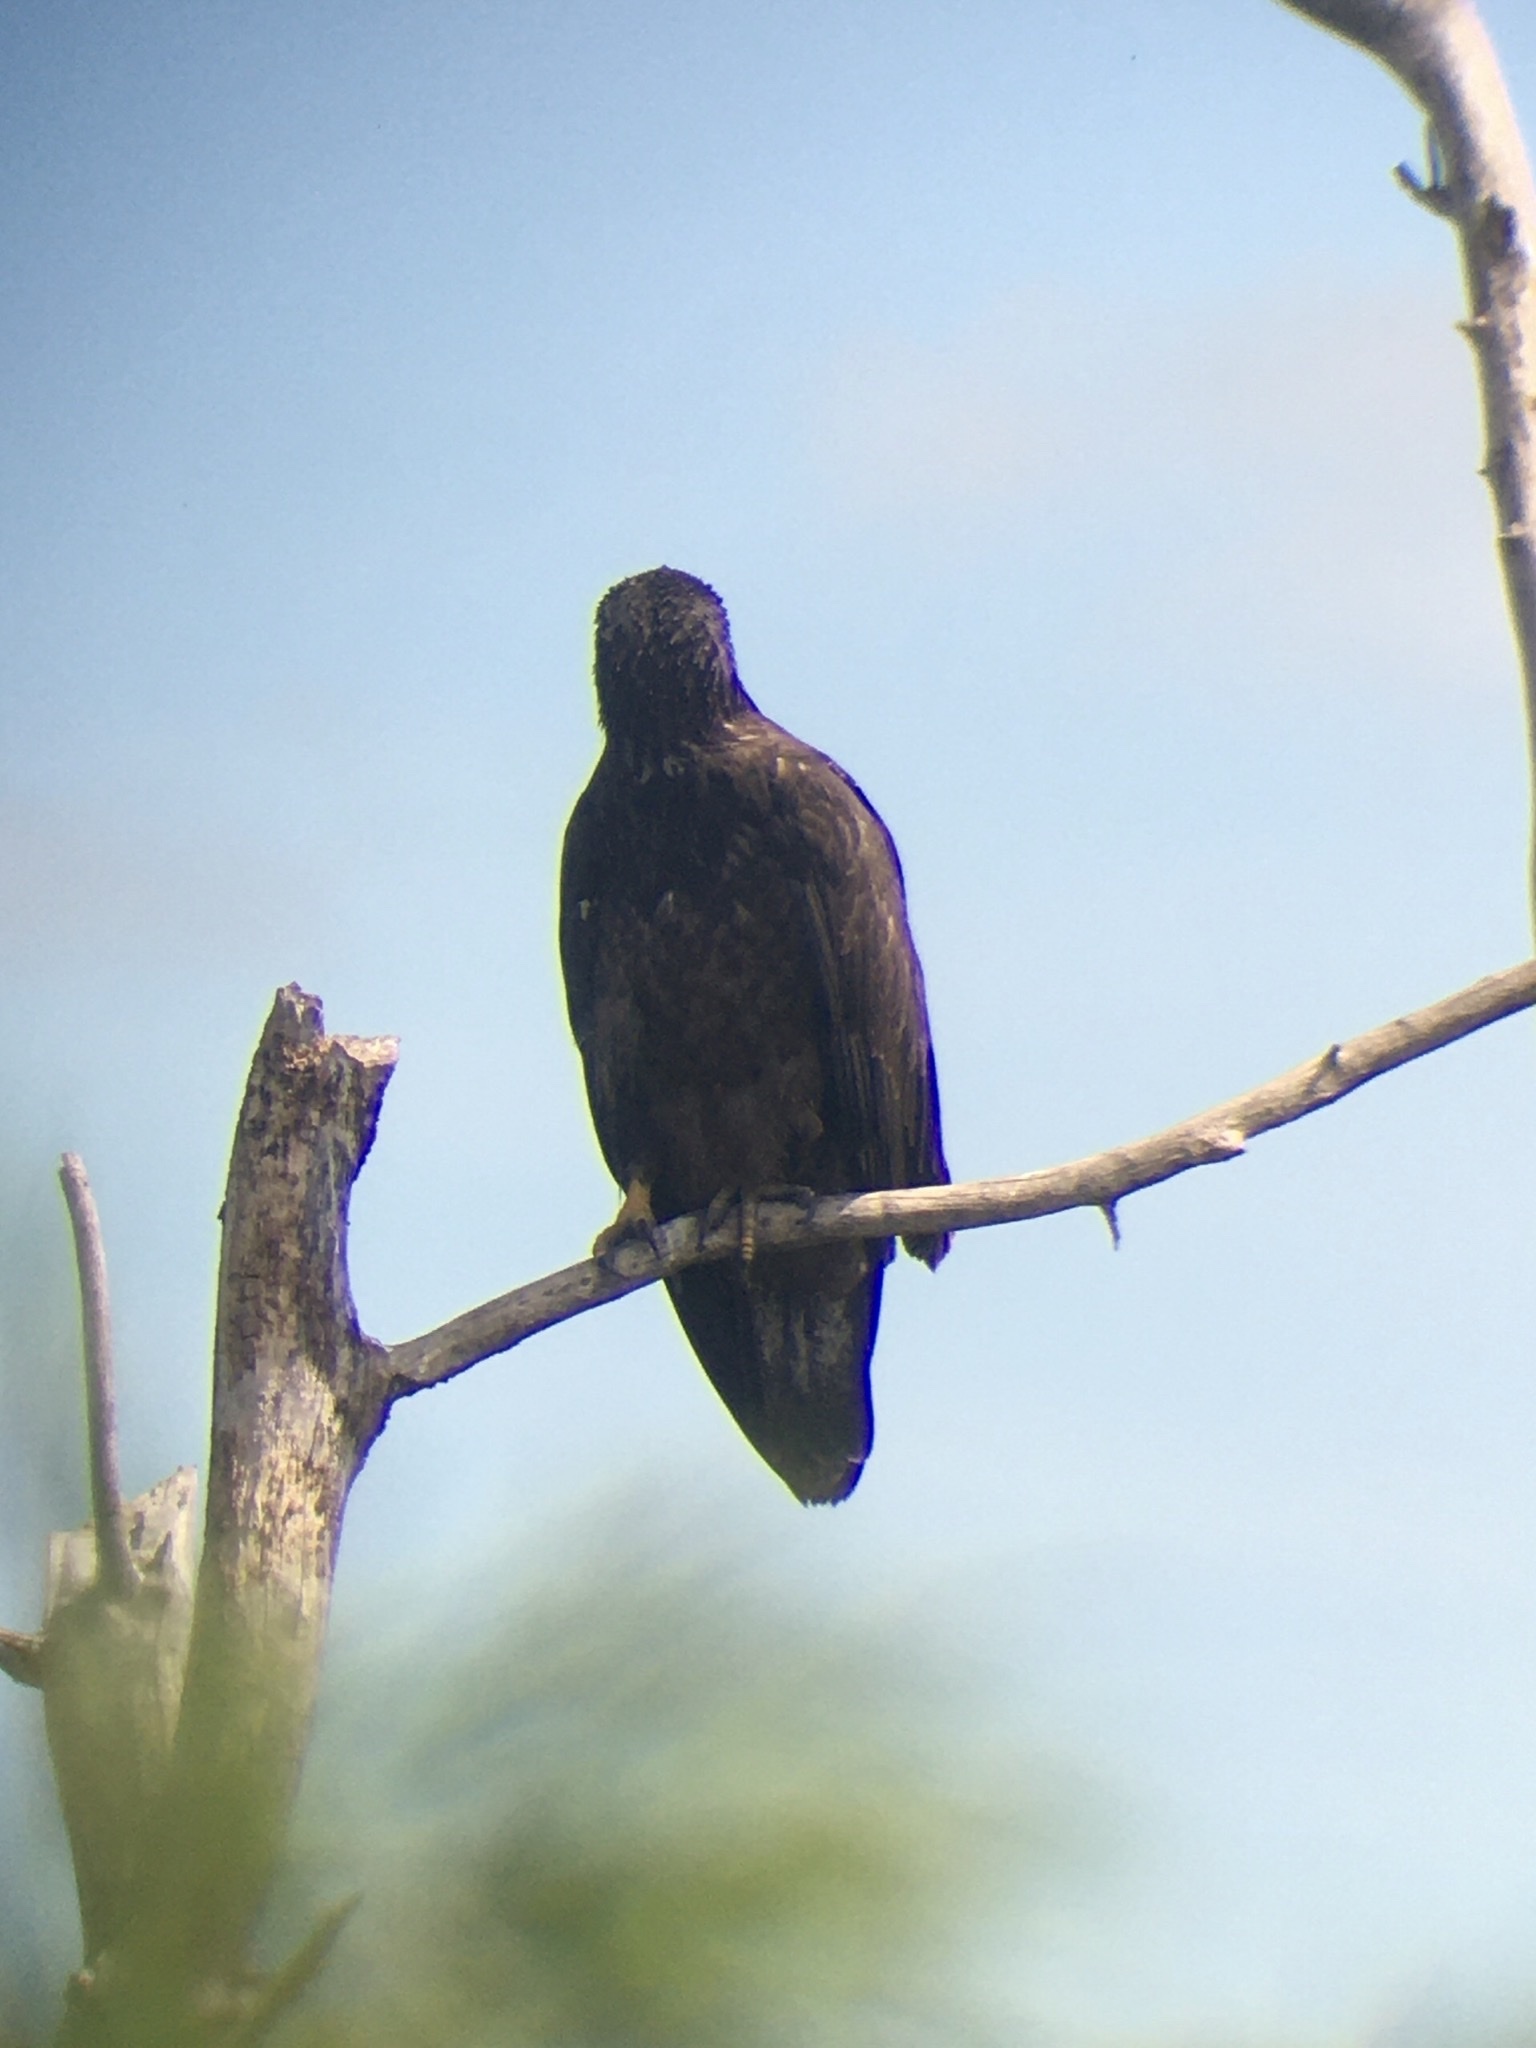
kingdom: Animalia
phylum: Chordata
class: Aves
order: Accipitriformes
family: Accipitridae
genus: Haliaeetus
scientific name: Haliaeetus leucocephalus
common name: Bald eagle
